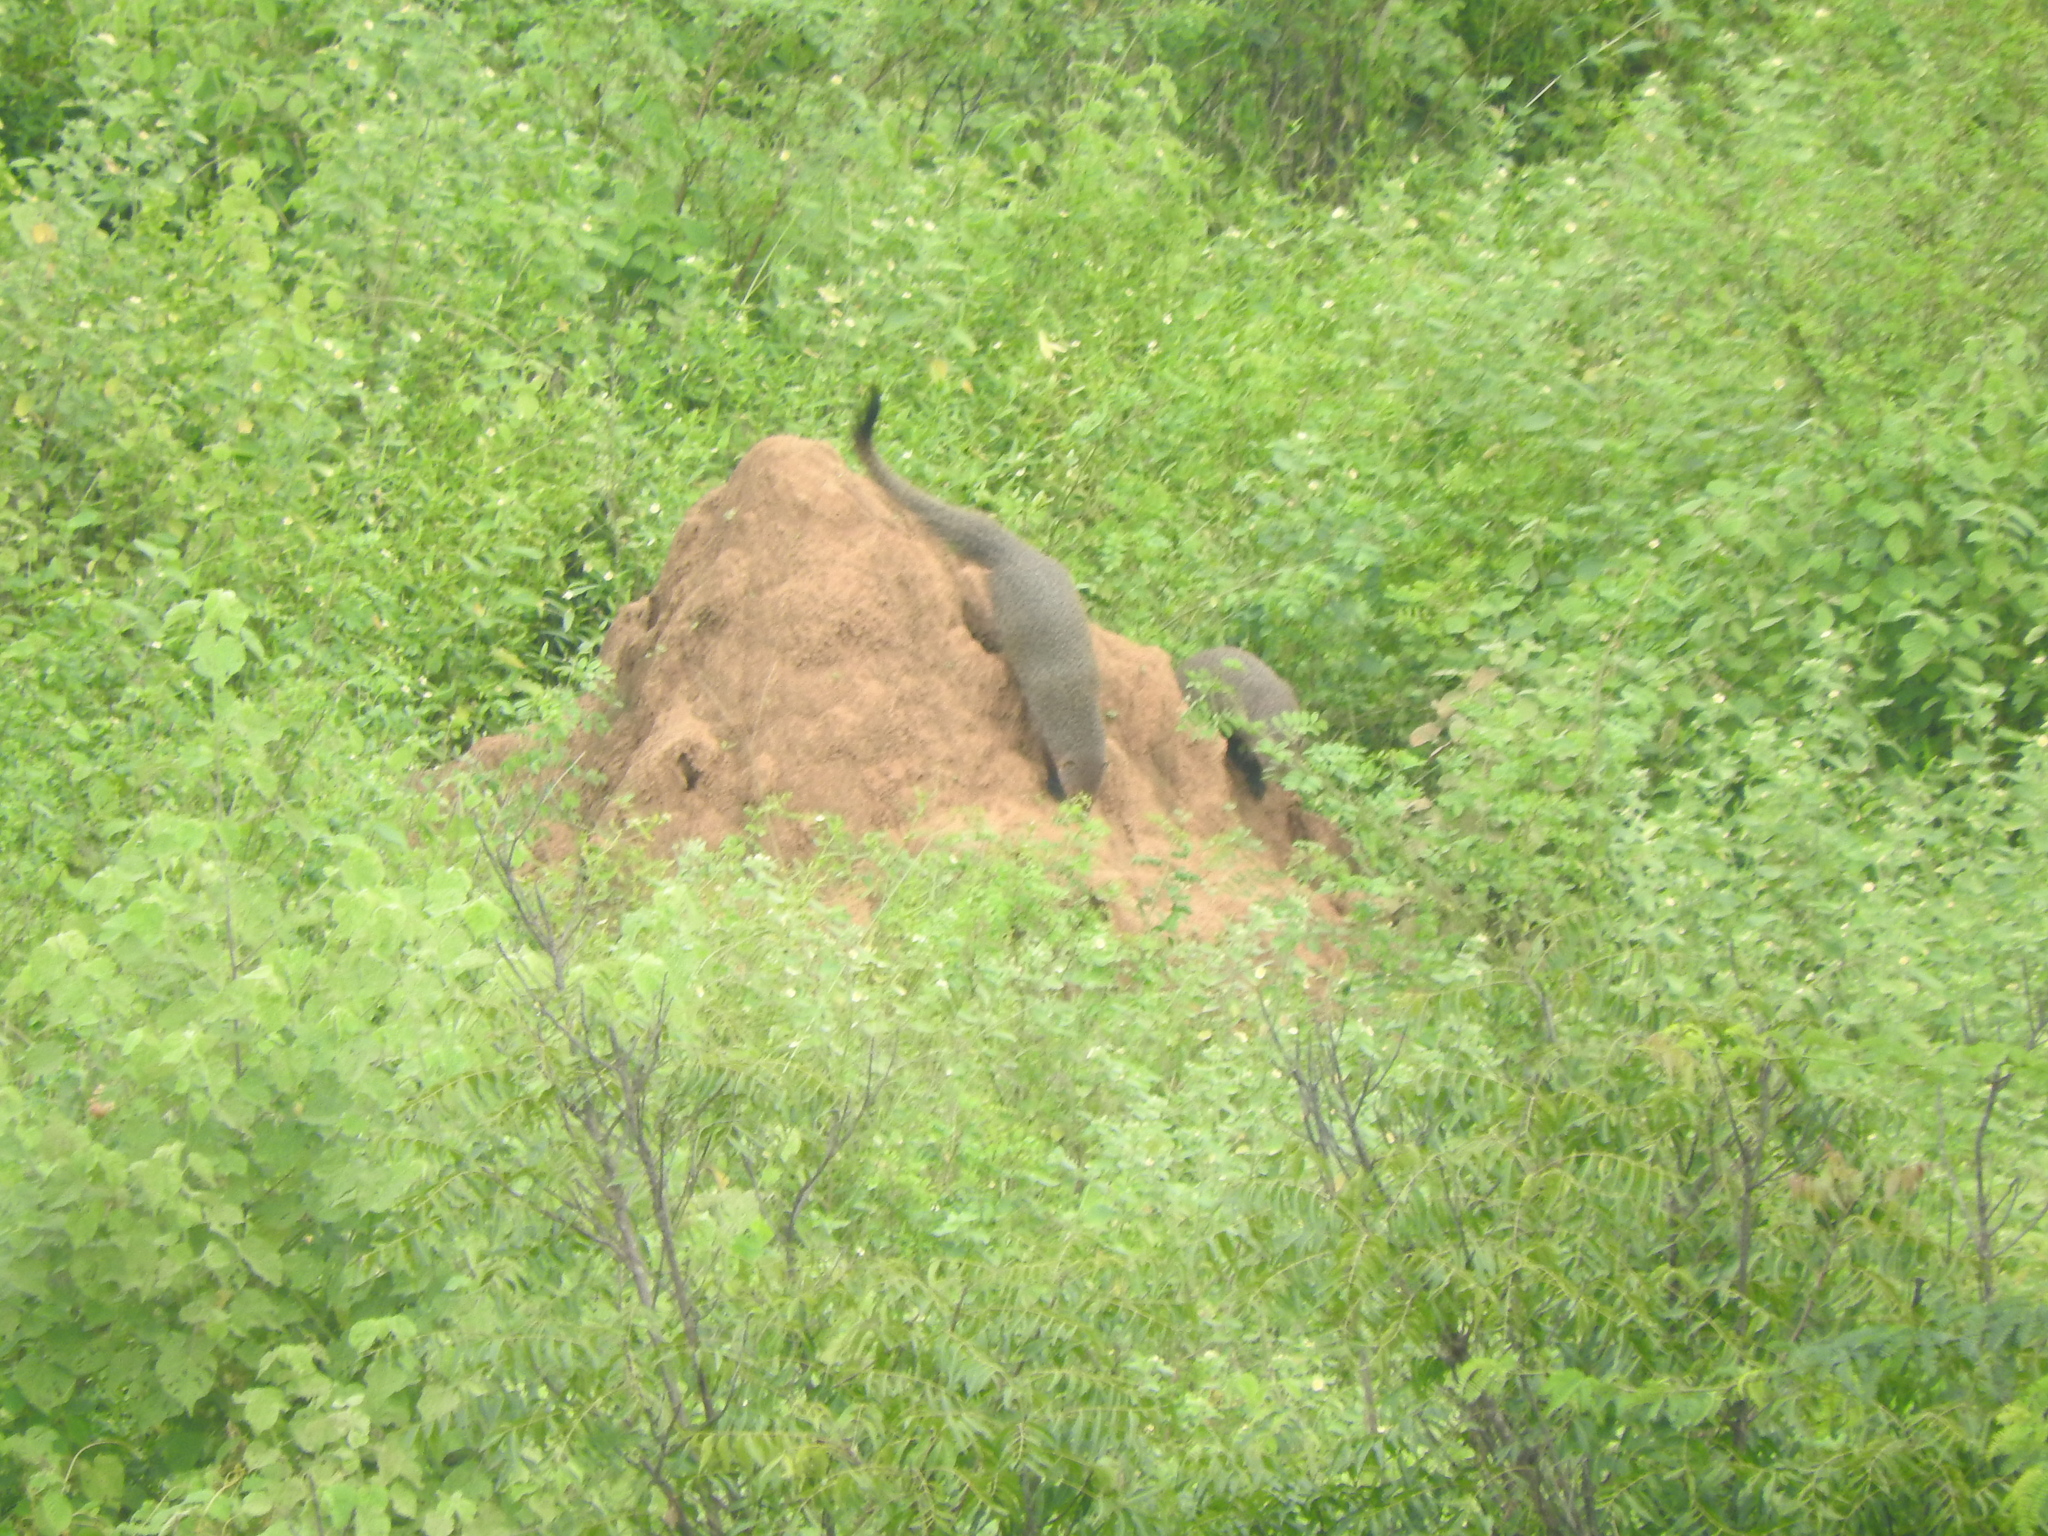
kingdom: Animalia
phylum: Chordata
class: Mammalia
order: Carnivora
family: Herpestidae
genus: Herpestes
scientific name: Herpestes smithii
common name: Ruddy mongoose
